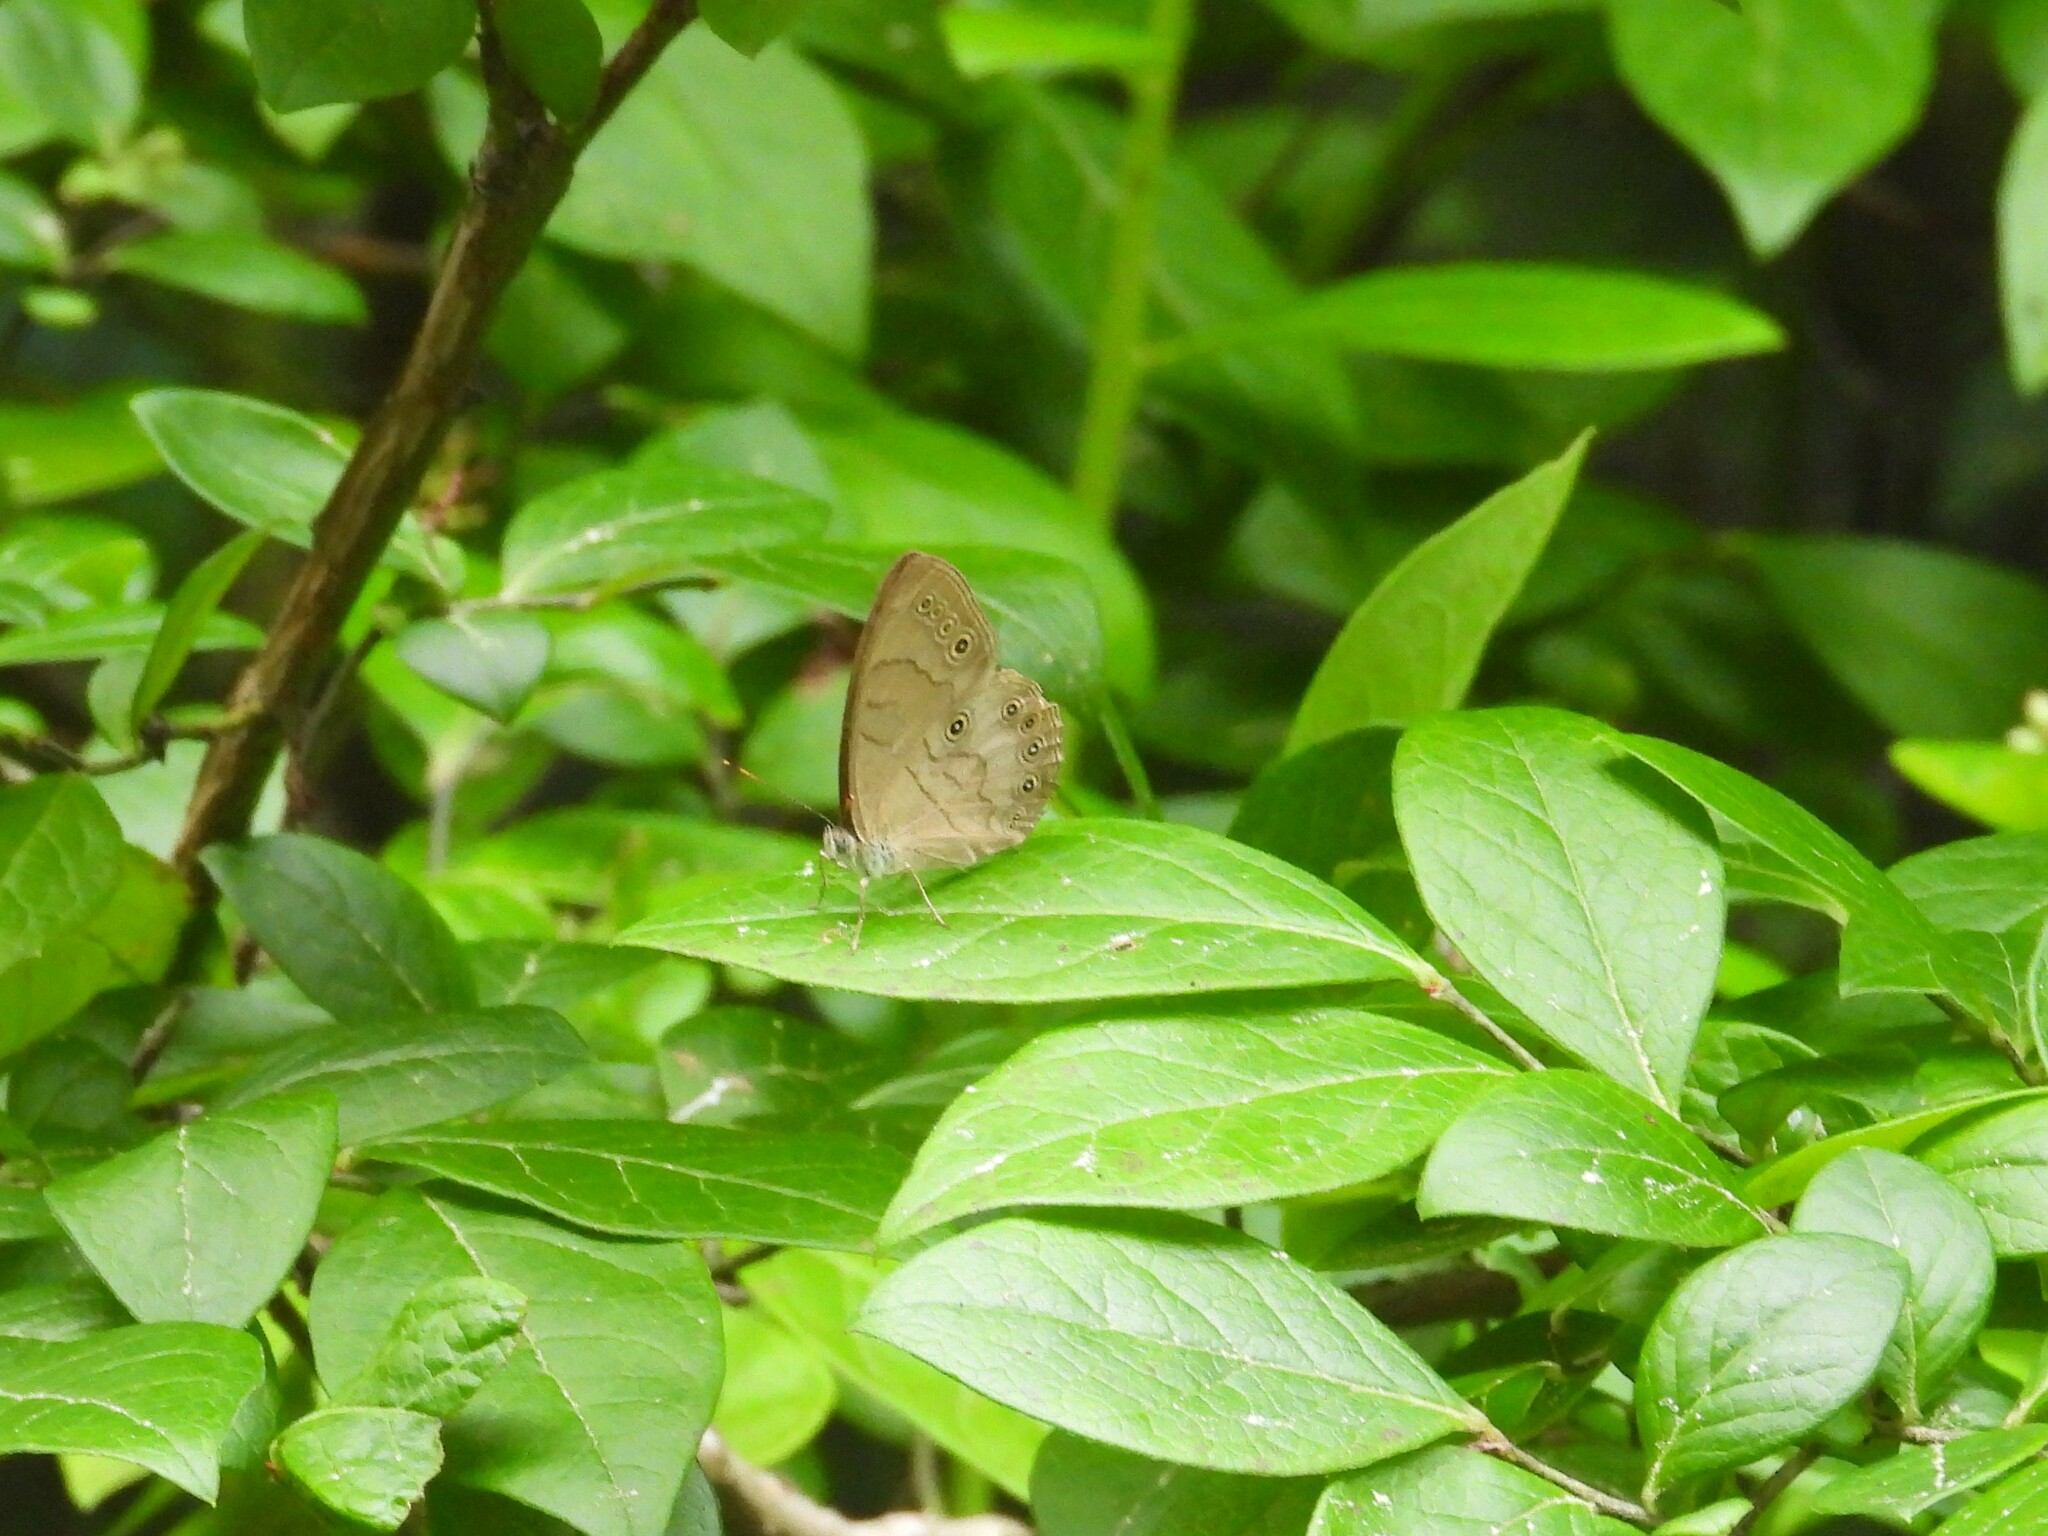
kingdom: Animalia
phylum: Arthropoda
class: Insecta
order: Lepidoptera
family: Nymphalidae
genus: Lethe
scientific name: Lethe eurydice
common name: Eyed brown
